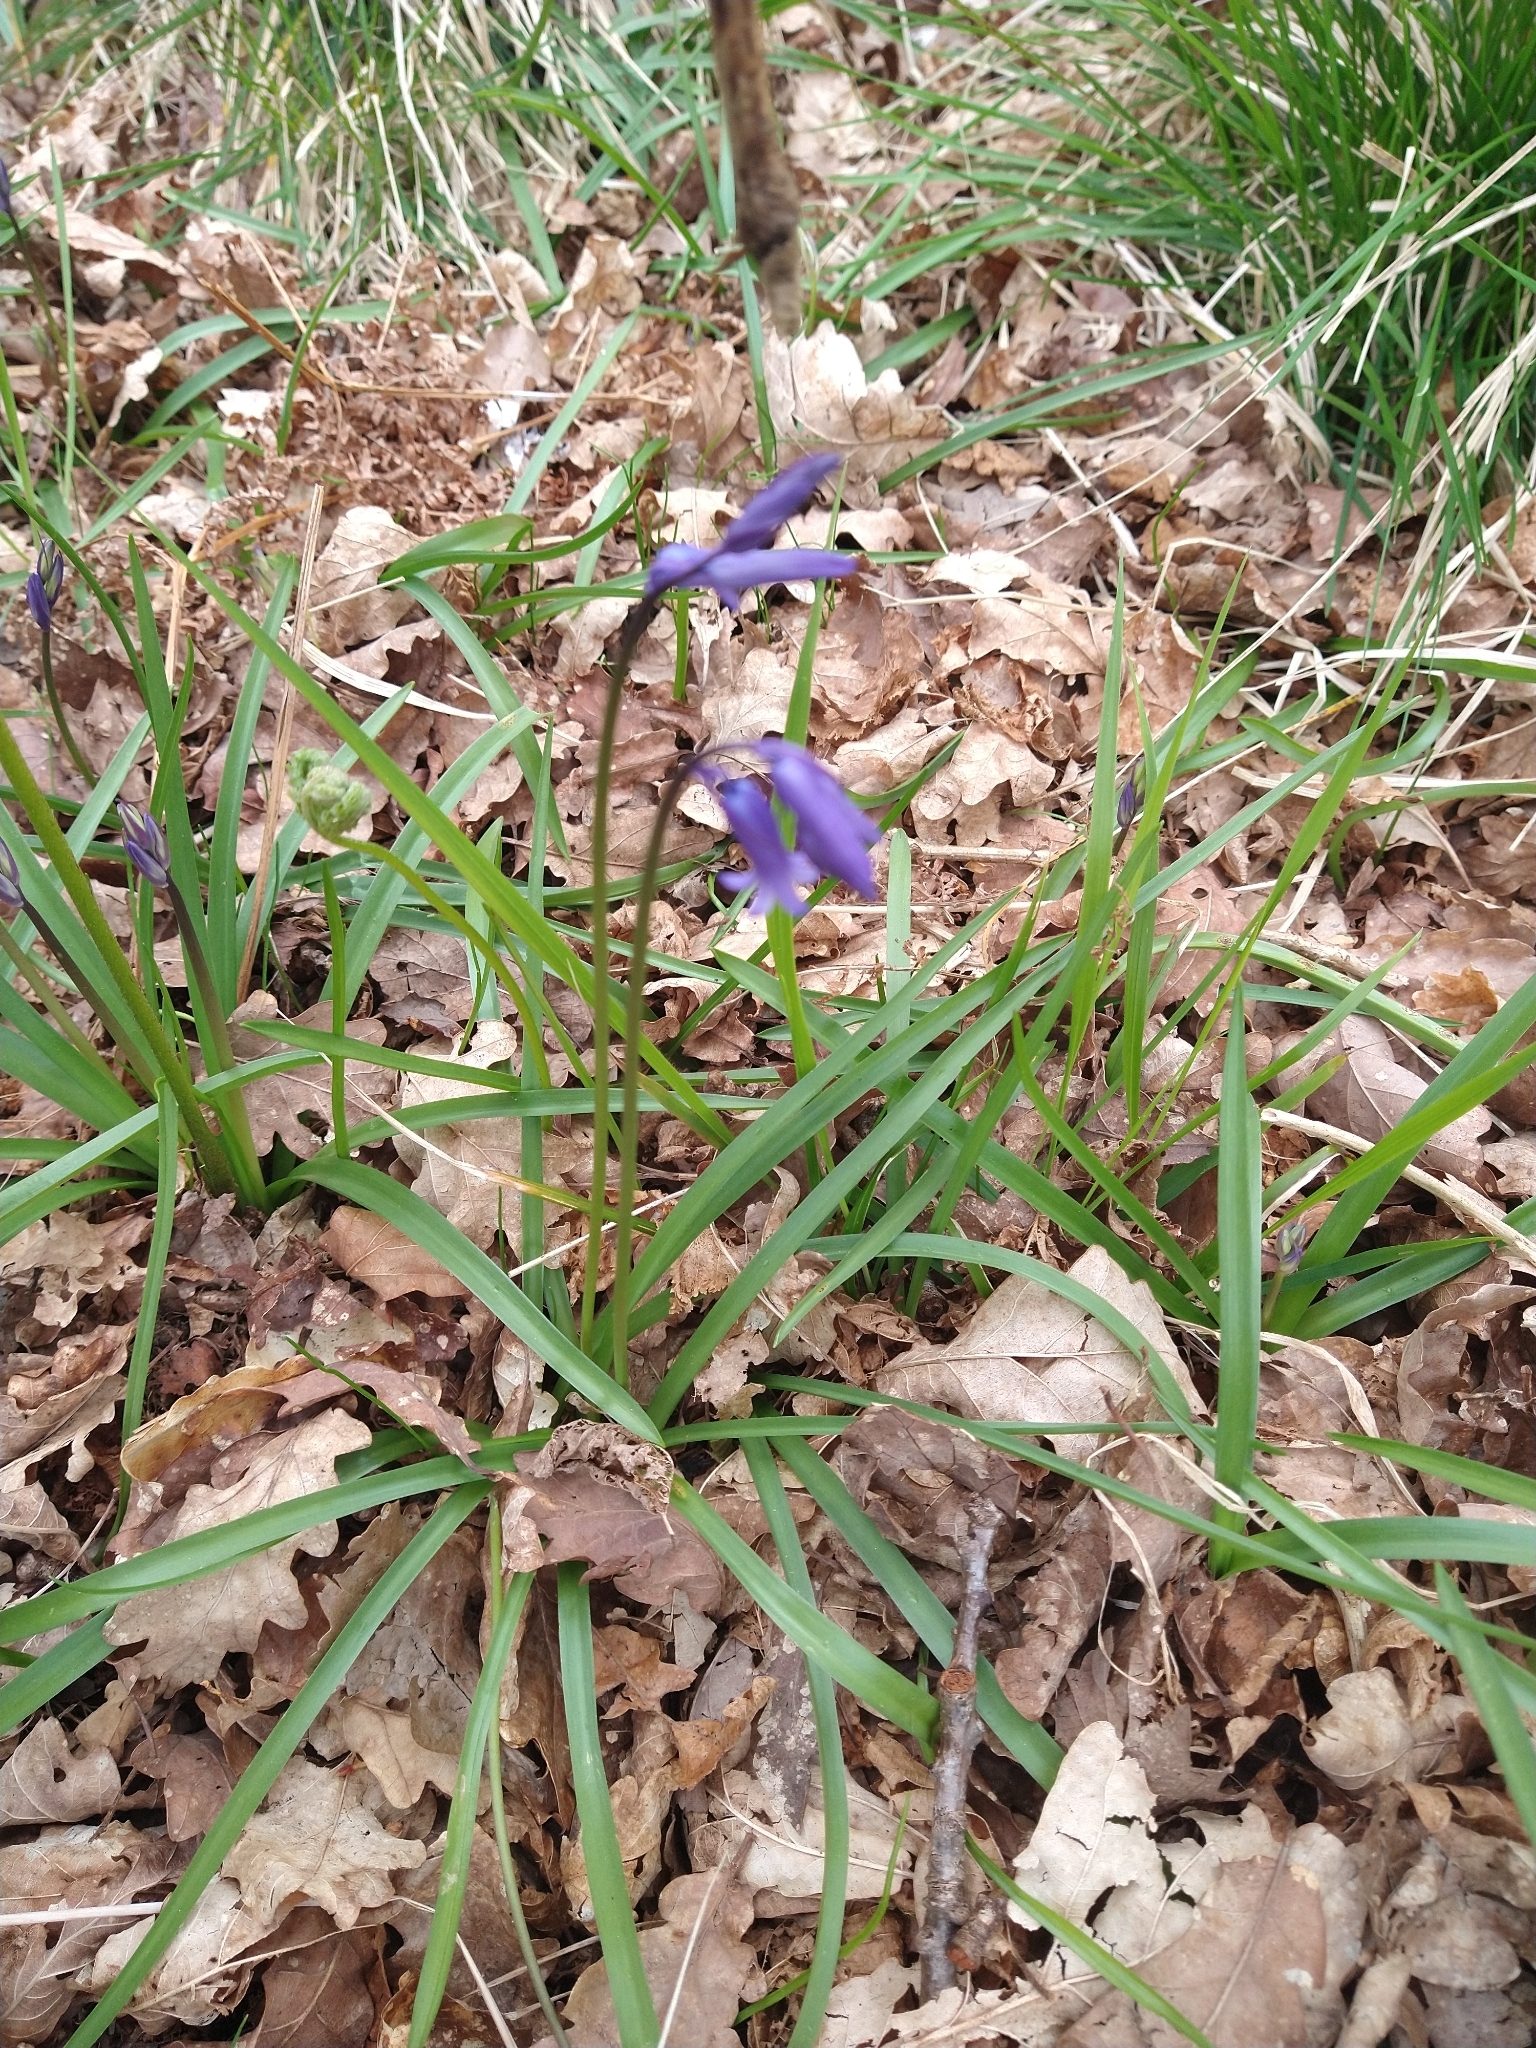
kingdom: Plantae
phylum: Tracheophyta
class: Liliopsida
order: Asparagales
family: Asparagaceae
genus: Hyacinthoides
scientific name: Hyacinthoides non-scripta
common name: Bluebell
